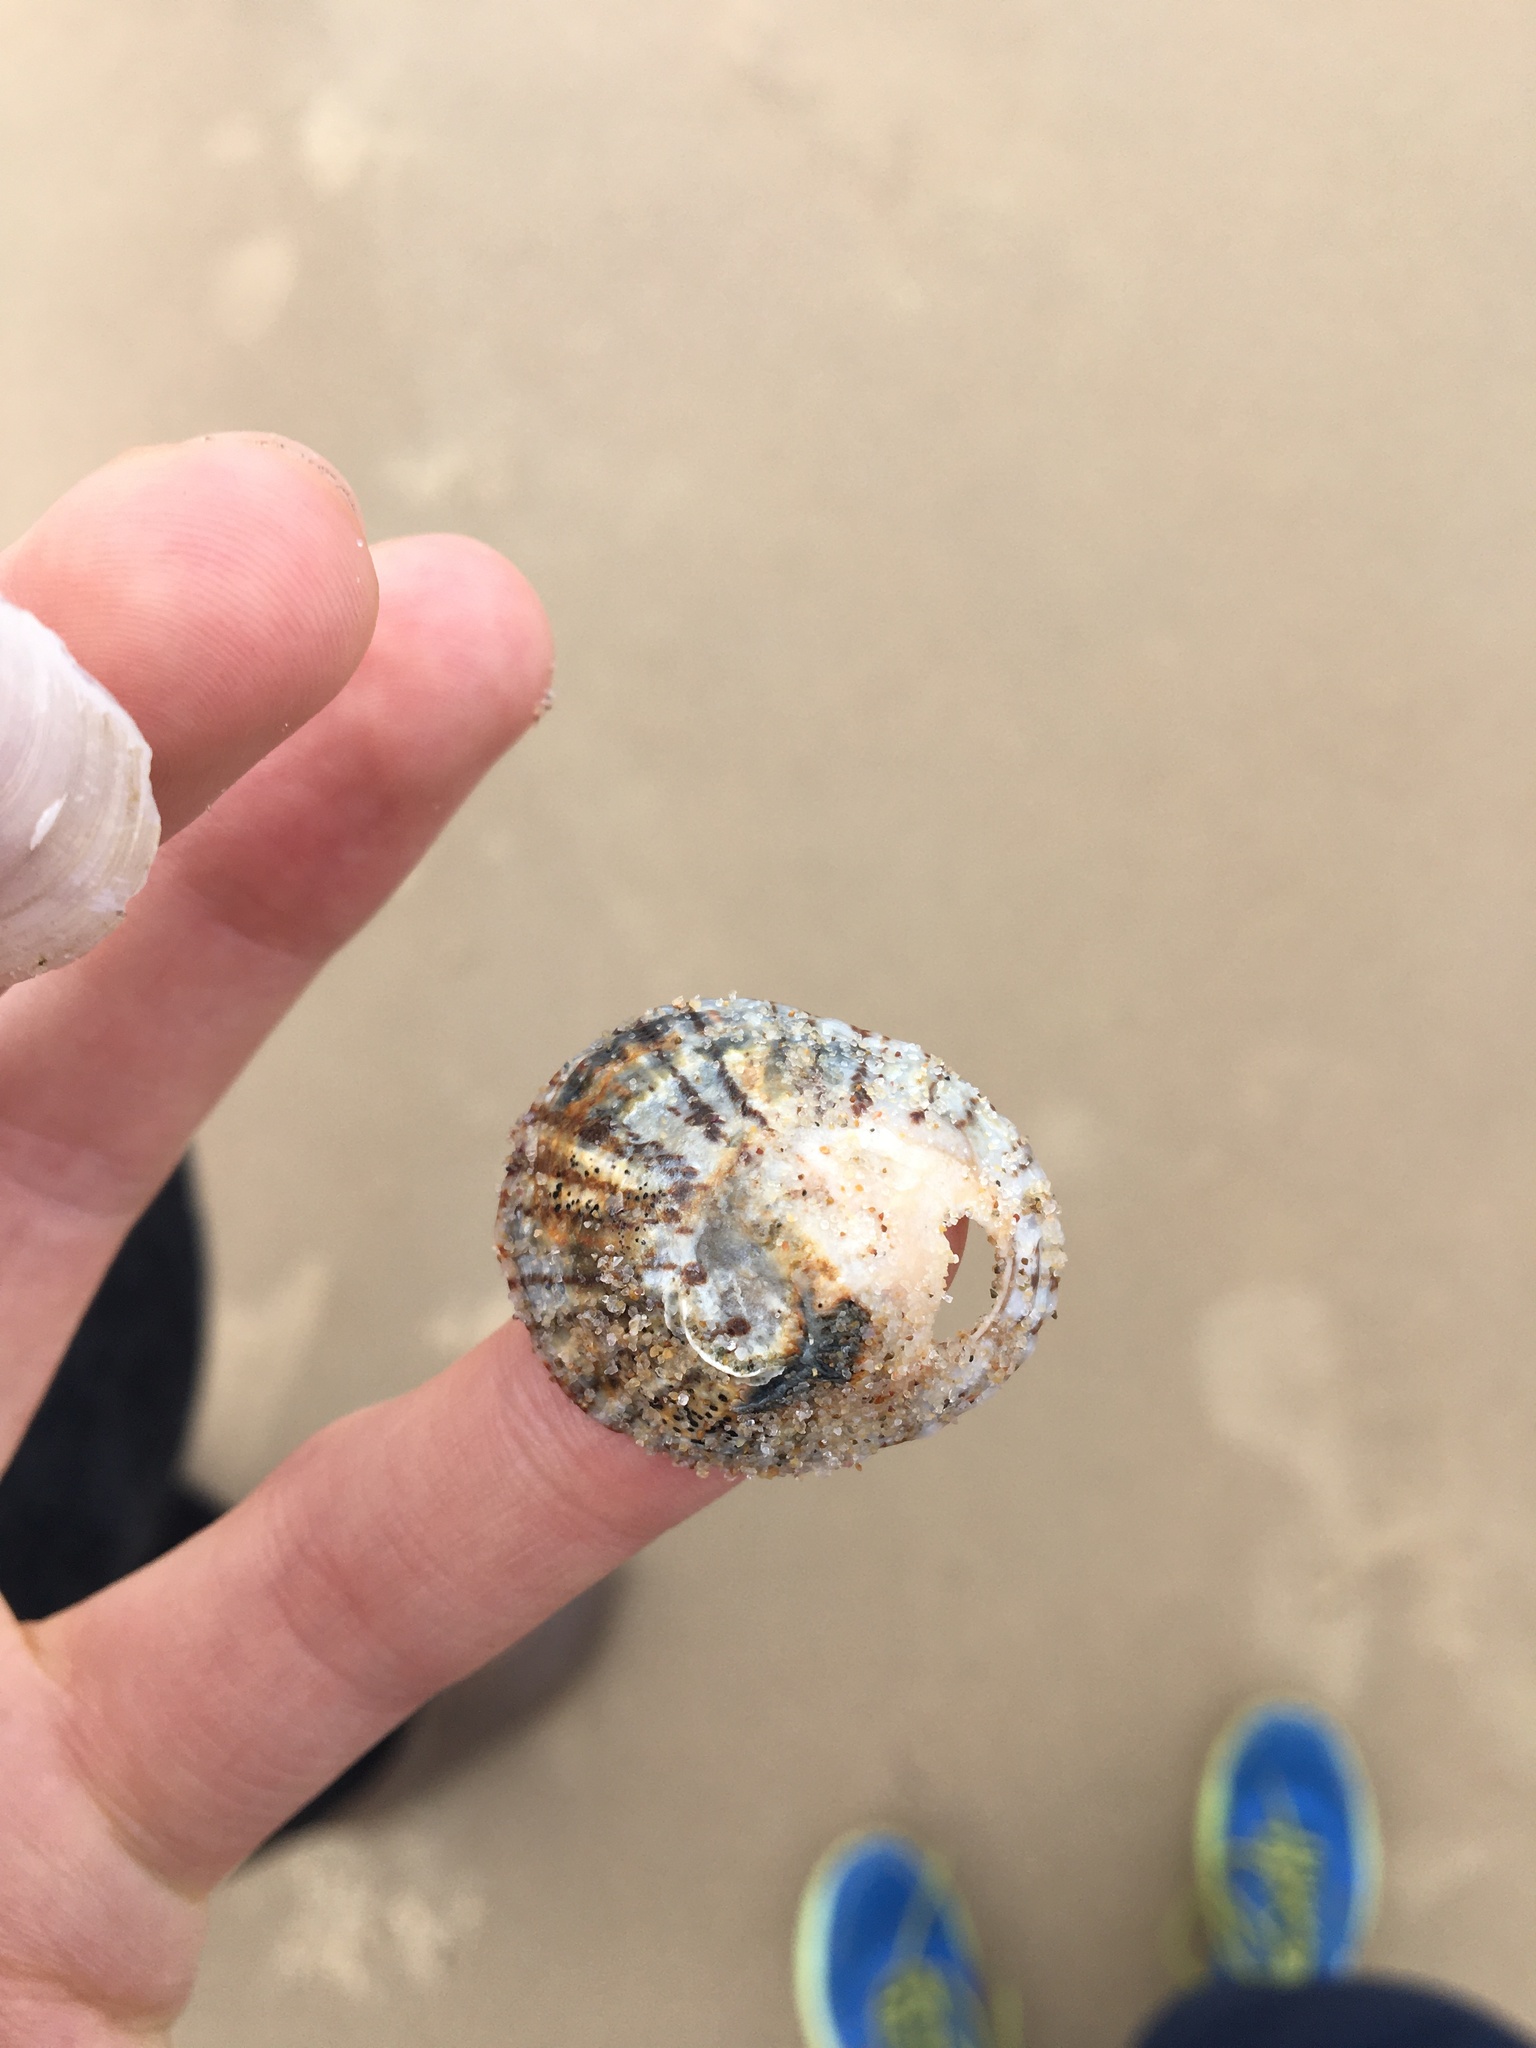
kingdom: Animalia
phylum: Mollusca
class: Gastropoda
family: Nacellidae
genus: Cellana
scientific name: Cellana tramoserica
